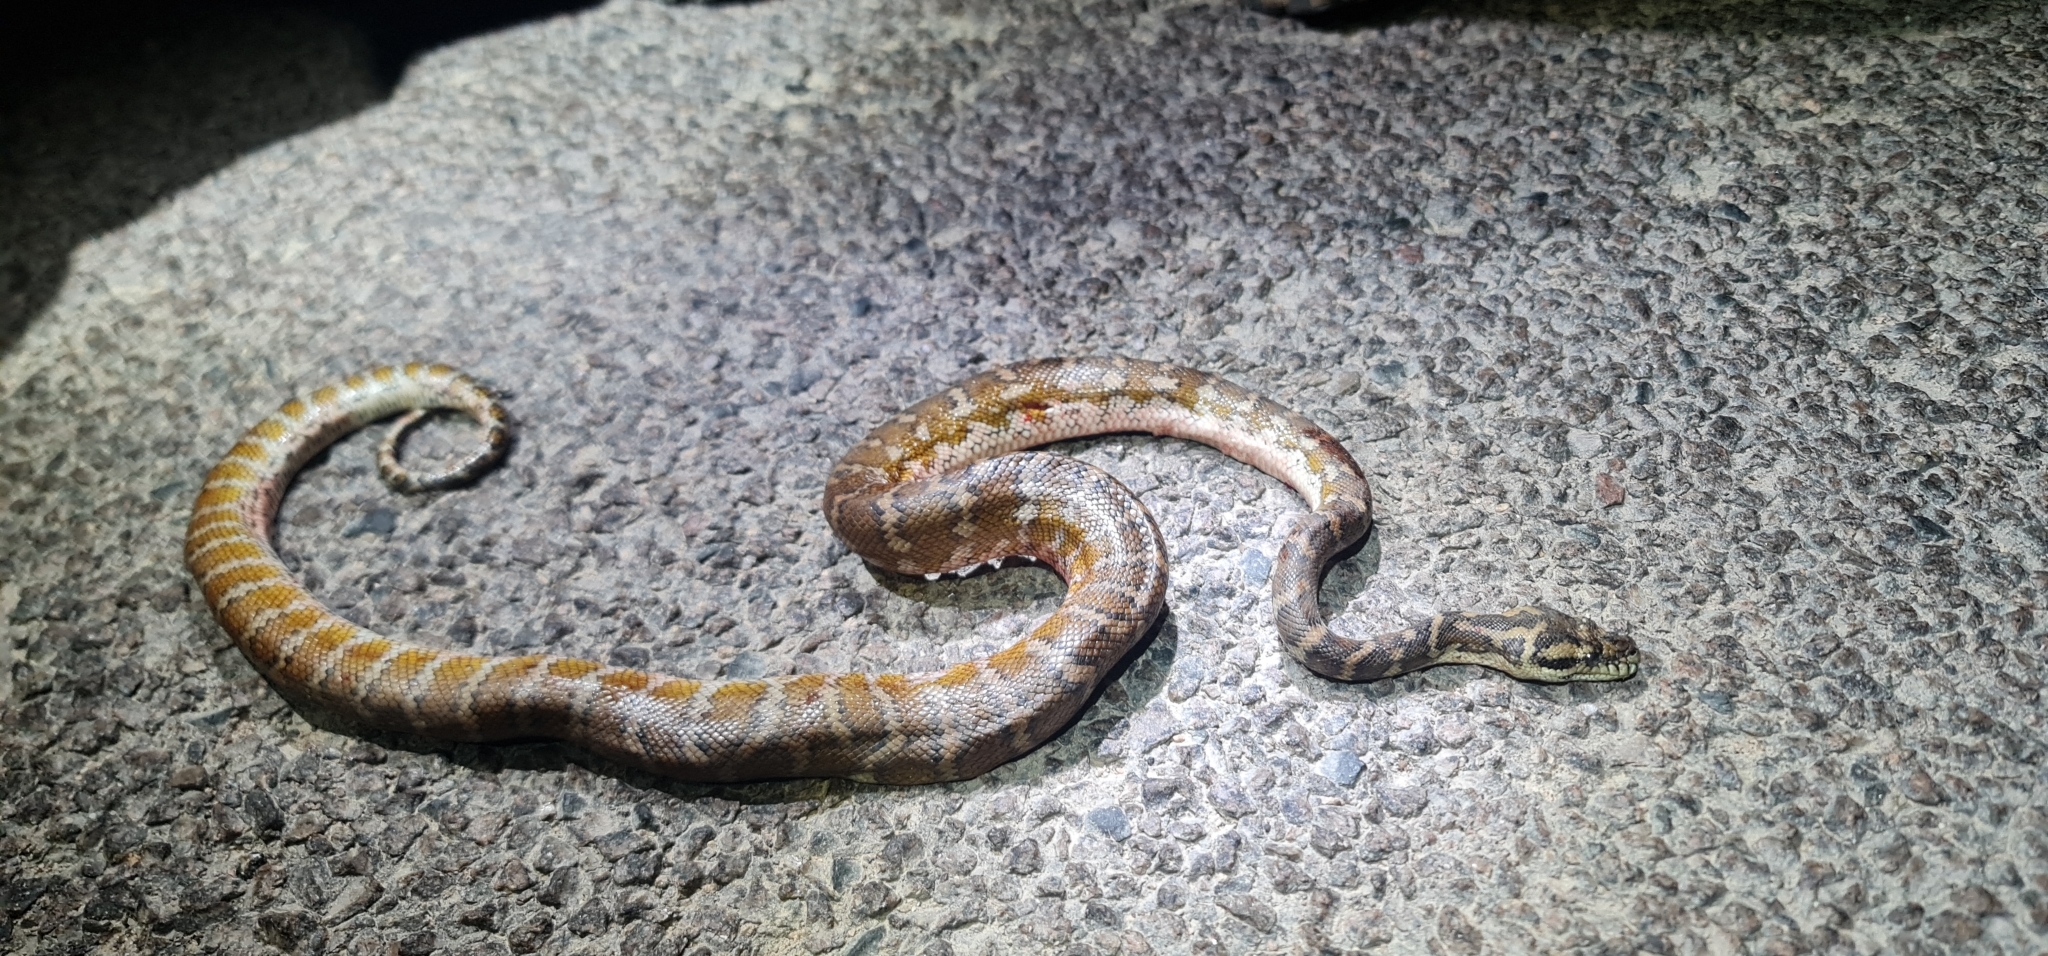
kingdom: Animalia
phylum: Chordata
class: Squamata
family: Pythonidae
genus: Morelia
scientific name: Morelia spilota
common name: Carpet python
